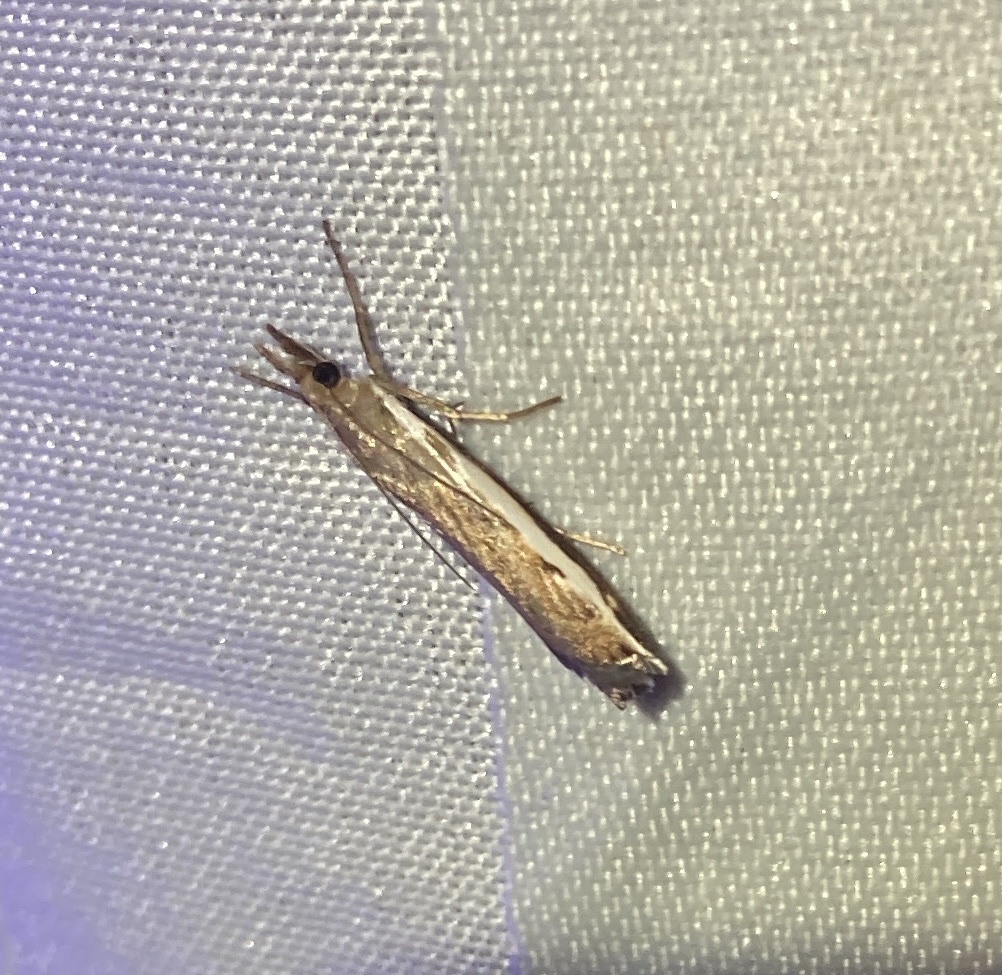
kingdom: Animalia
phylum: Arthropoda
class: Insecta
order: Lepidoptera
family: Crambidae
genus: Orocrambus
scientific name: Orocrambus flexuosellus
